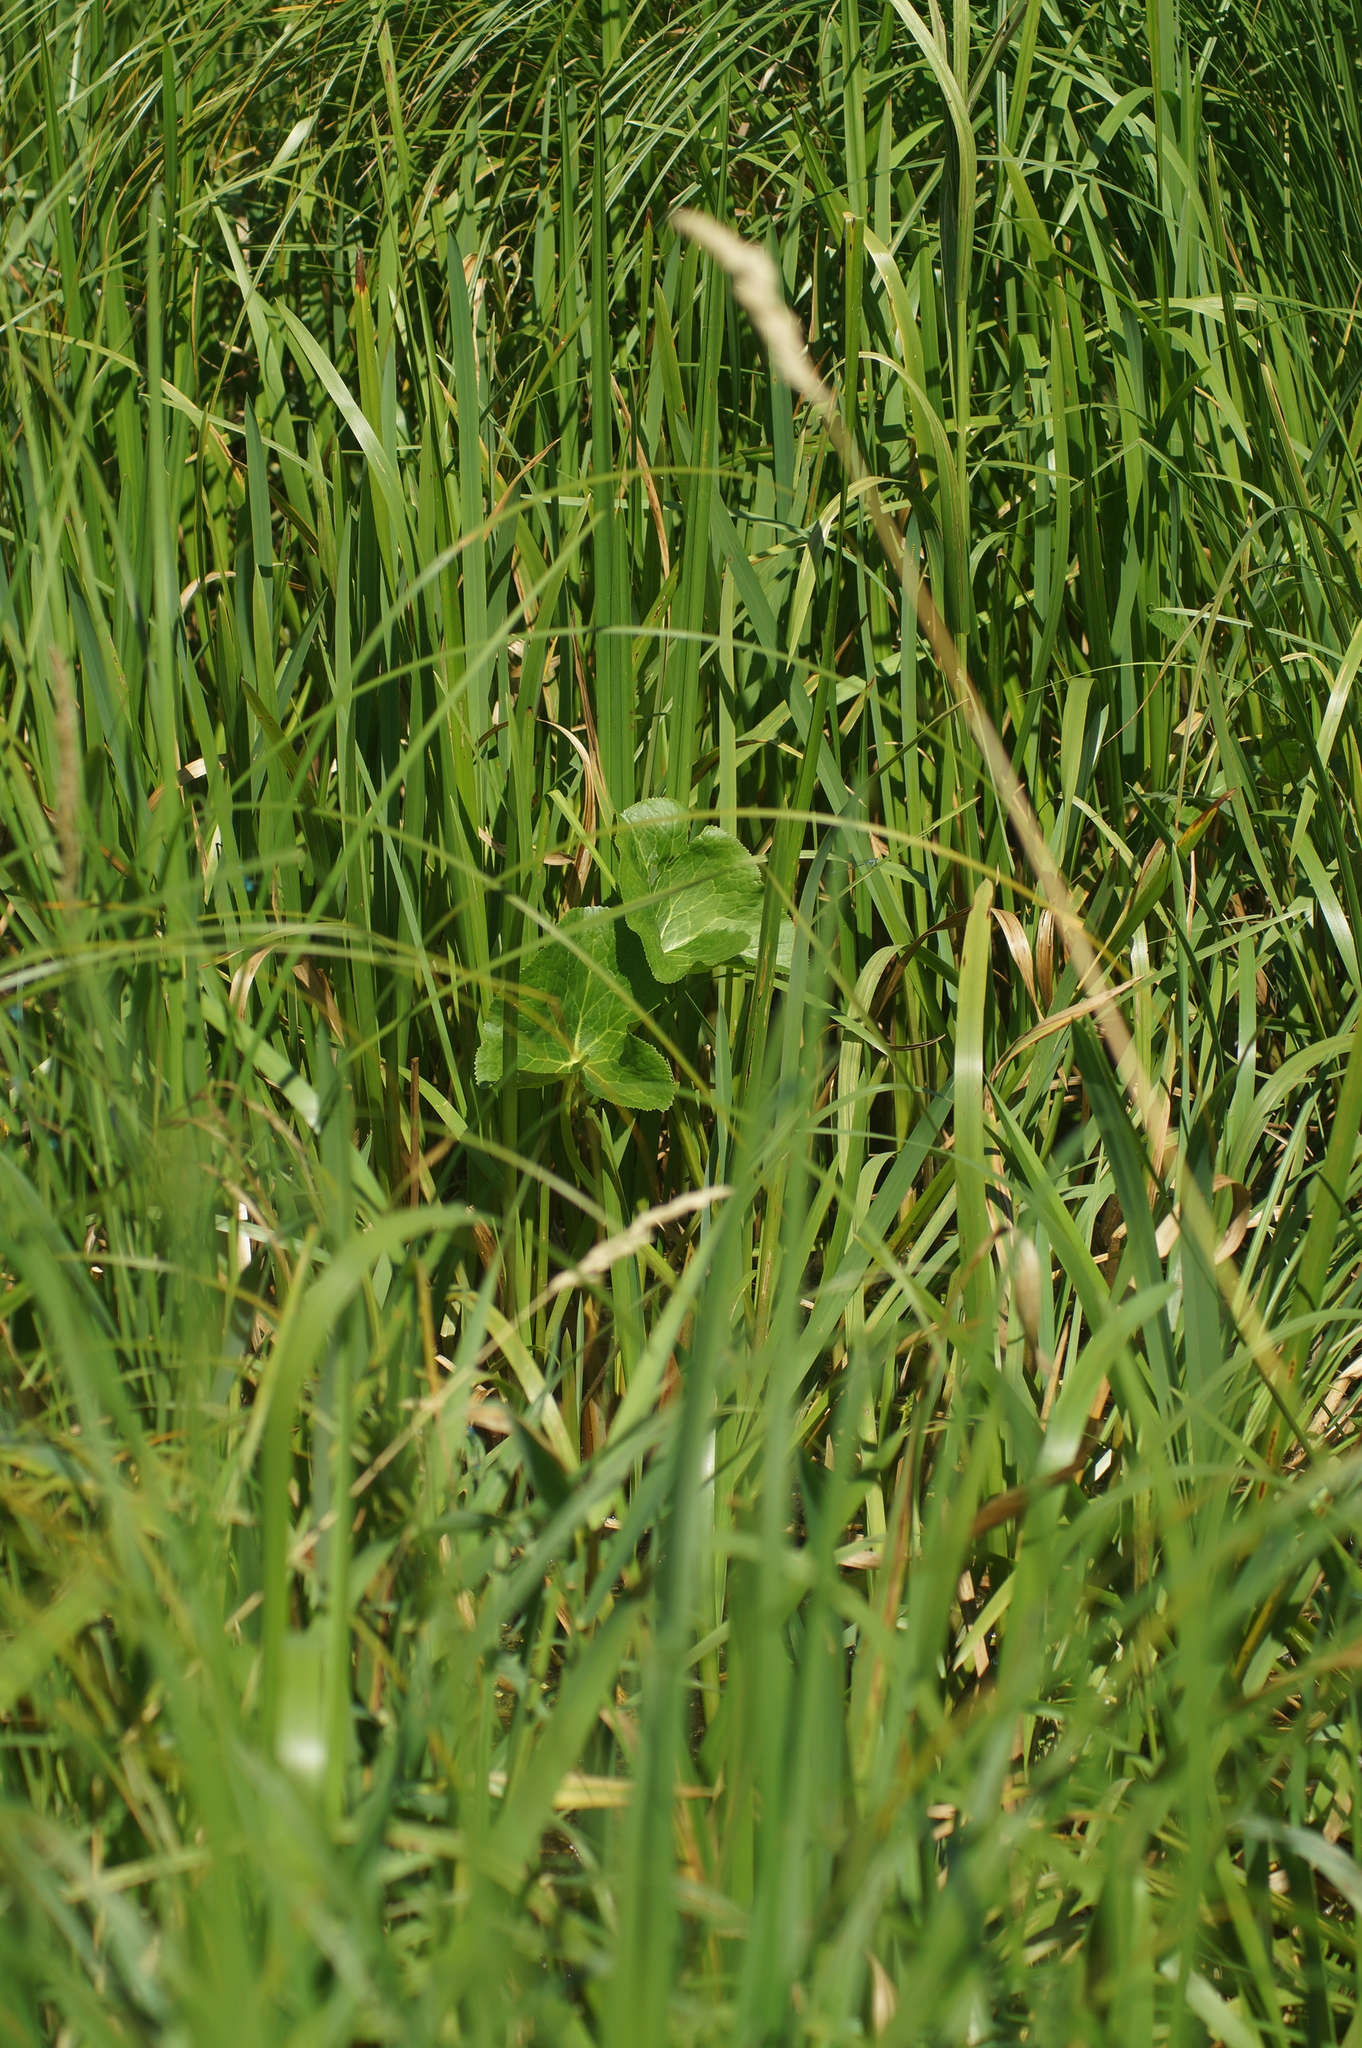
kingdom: Plantae
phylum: Tracheophyta
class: Magnoliopsida
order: Ranunculales
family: Ranunculaceae
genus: Caltha
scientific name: Caltha palustris
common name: Marsh marigold
